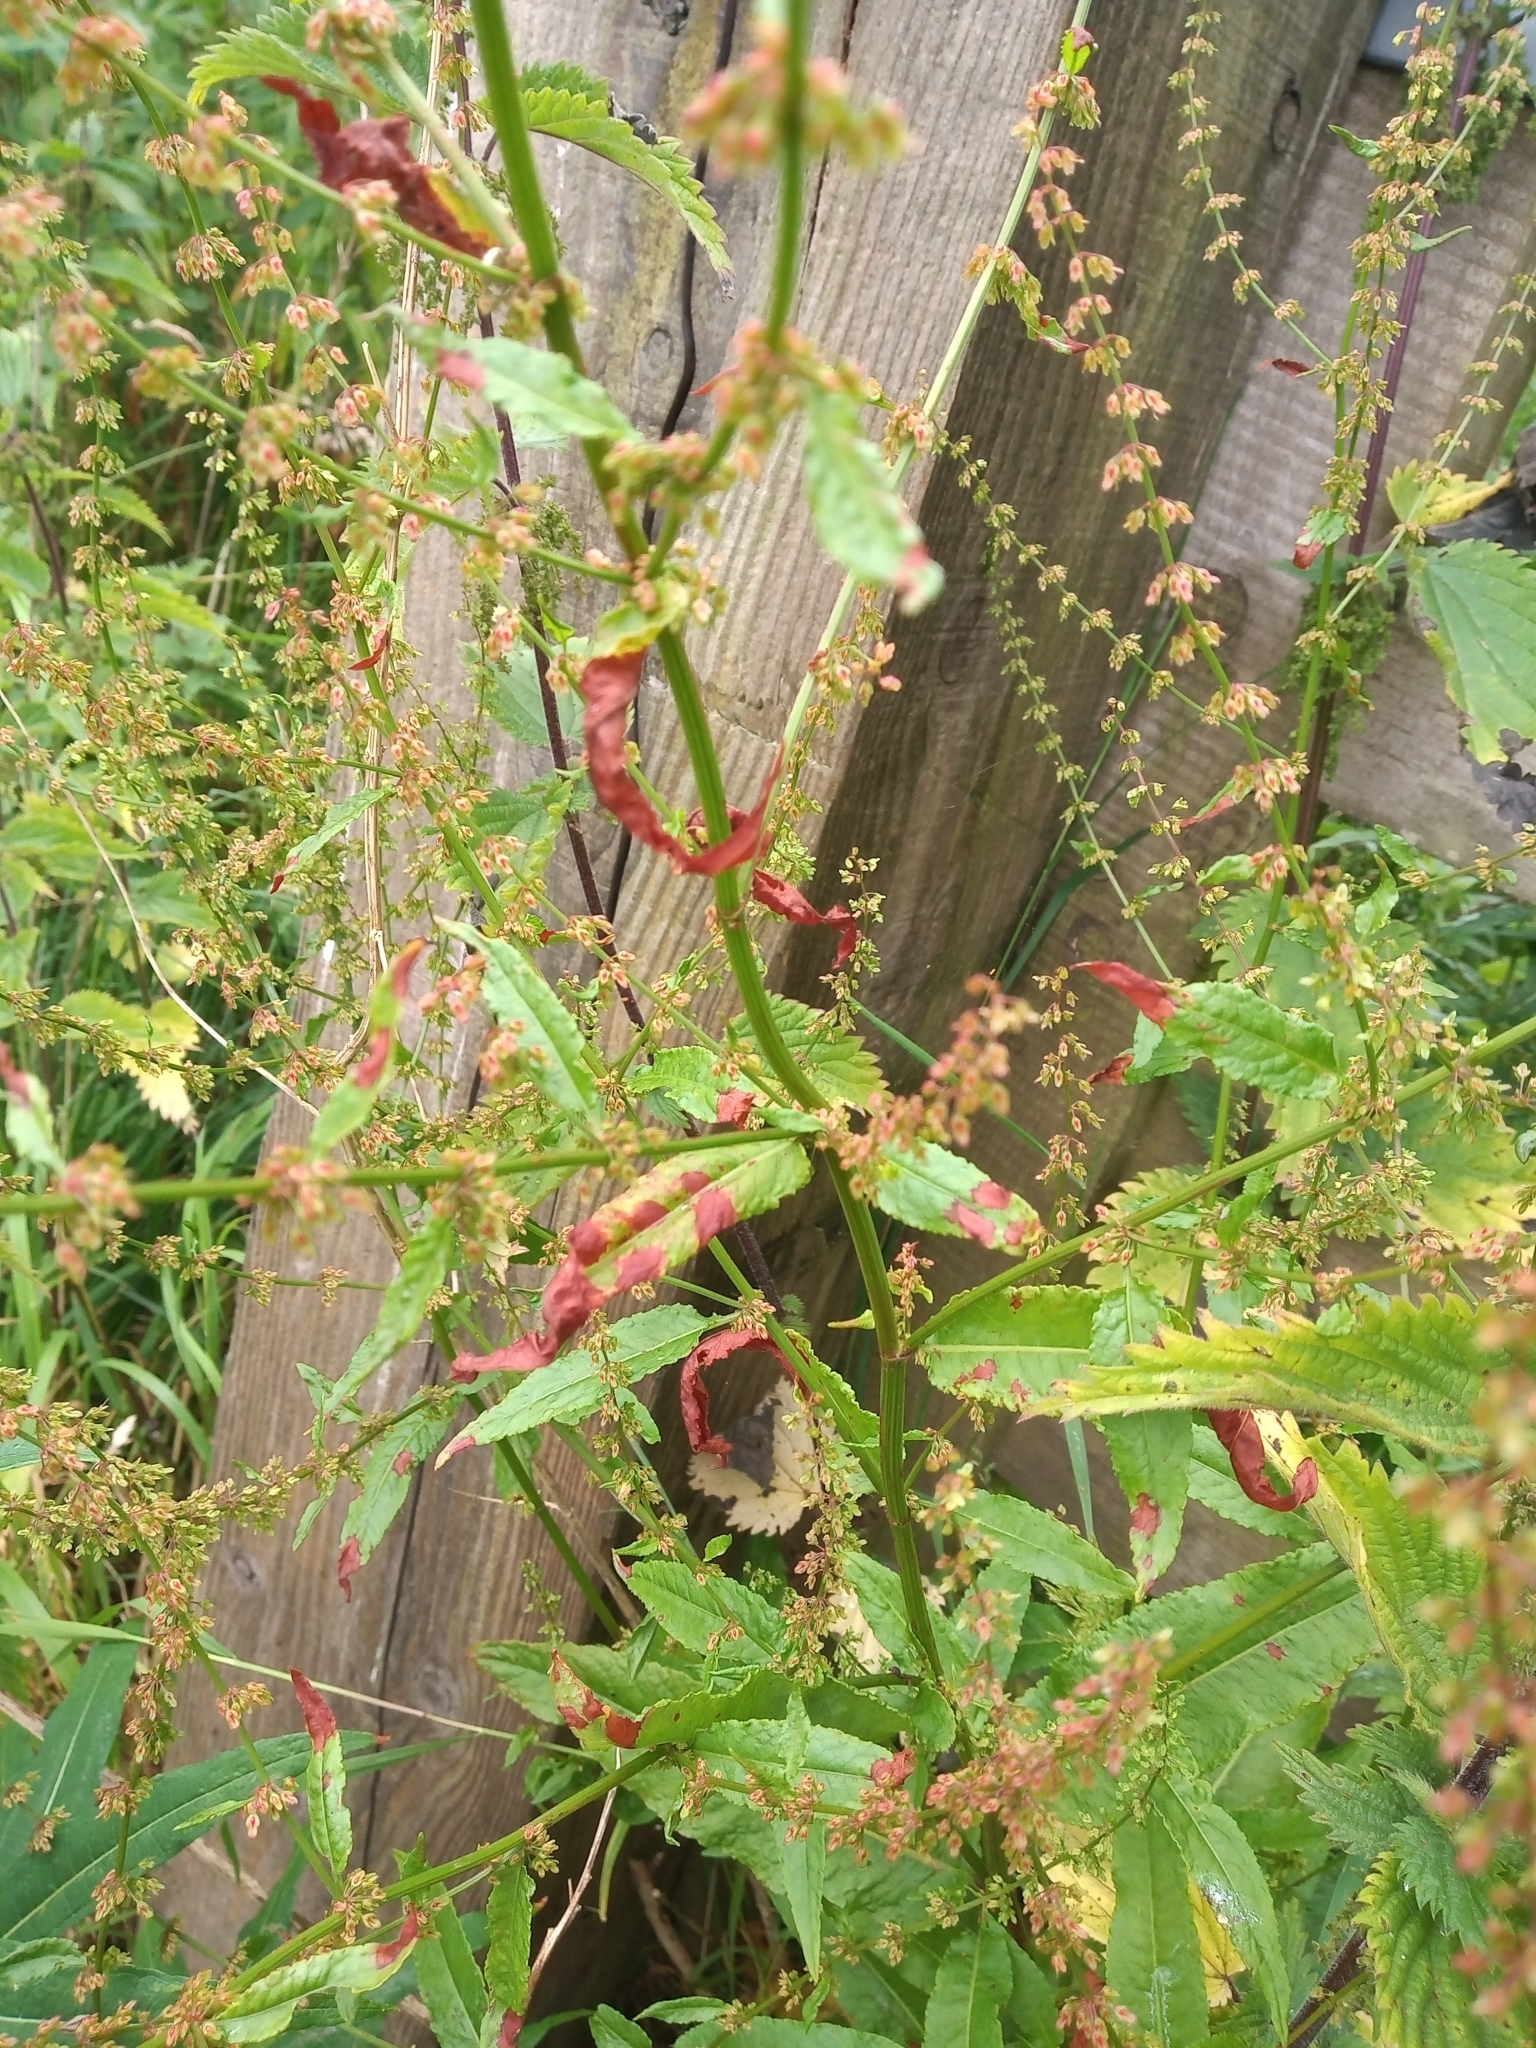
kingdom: Plantae
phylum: Tracheophyta
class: Magnoliopsida
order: Caryophyllales
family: Polygonaceae
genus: Rumex
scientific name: Rumex sanguineus
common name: Wood dock
